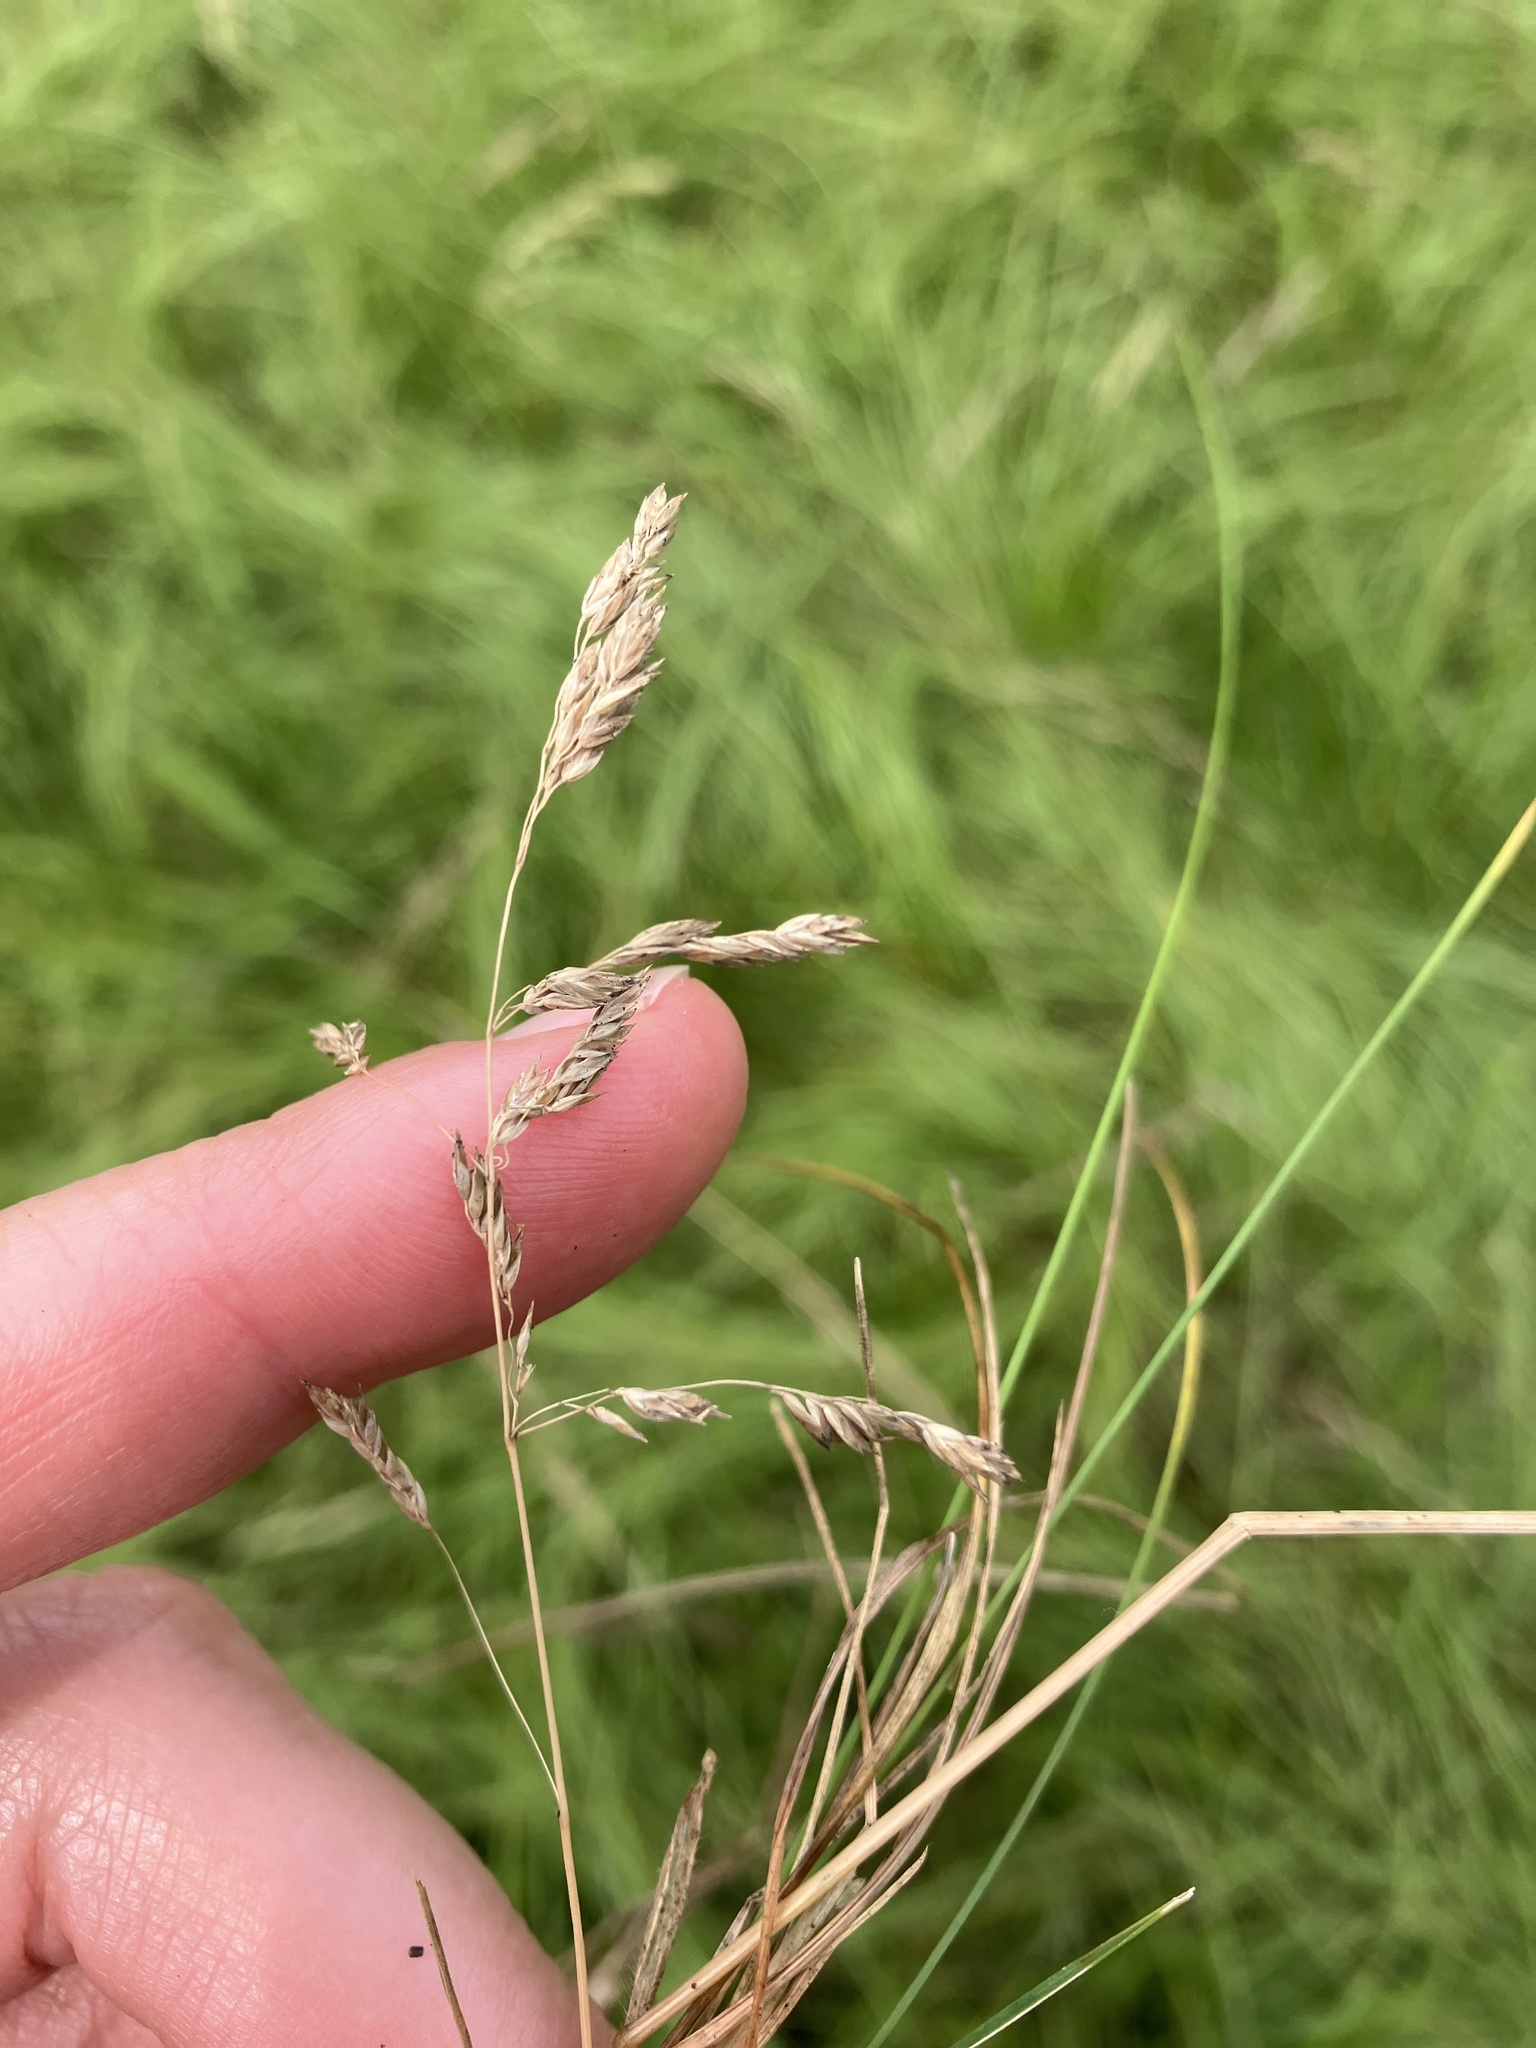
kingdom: Plantae
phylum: Tracheophyta
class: Liliopsida
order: Poales
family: Poaceae
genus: Poa
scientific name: Poa angustifolia
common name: Narrow-leaved meadow-grass
